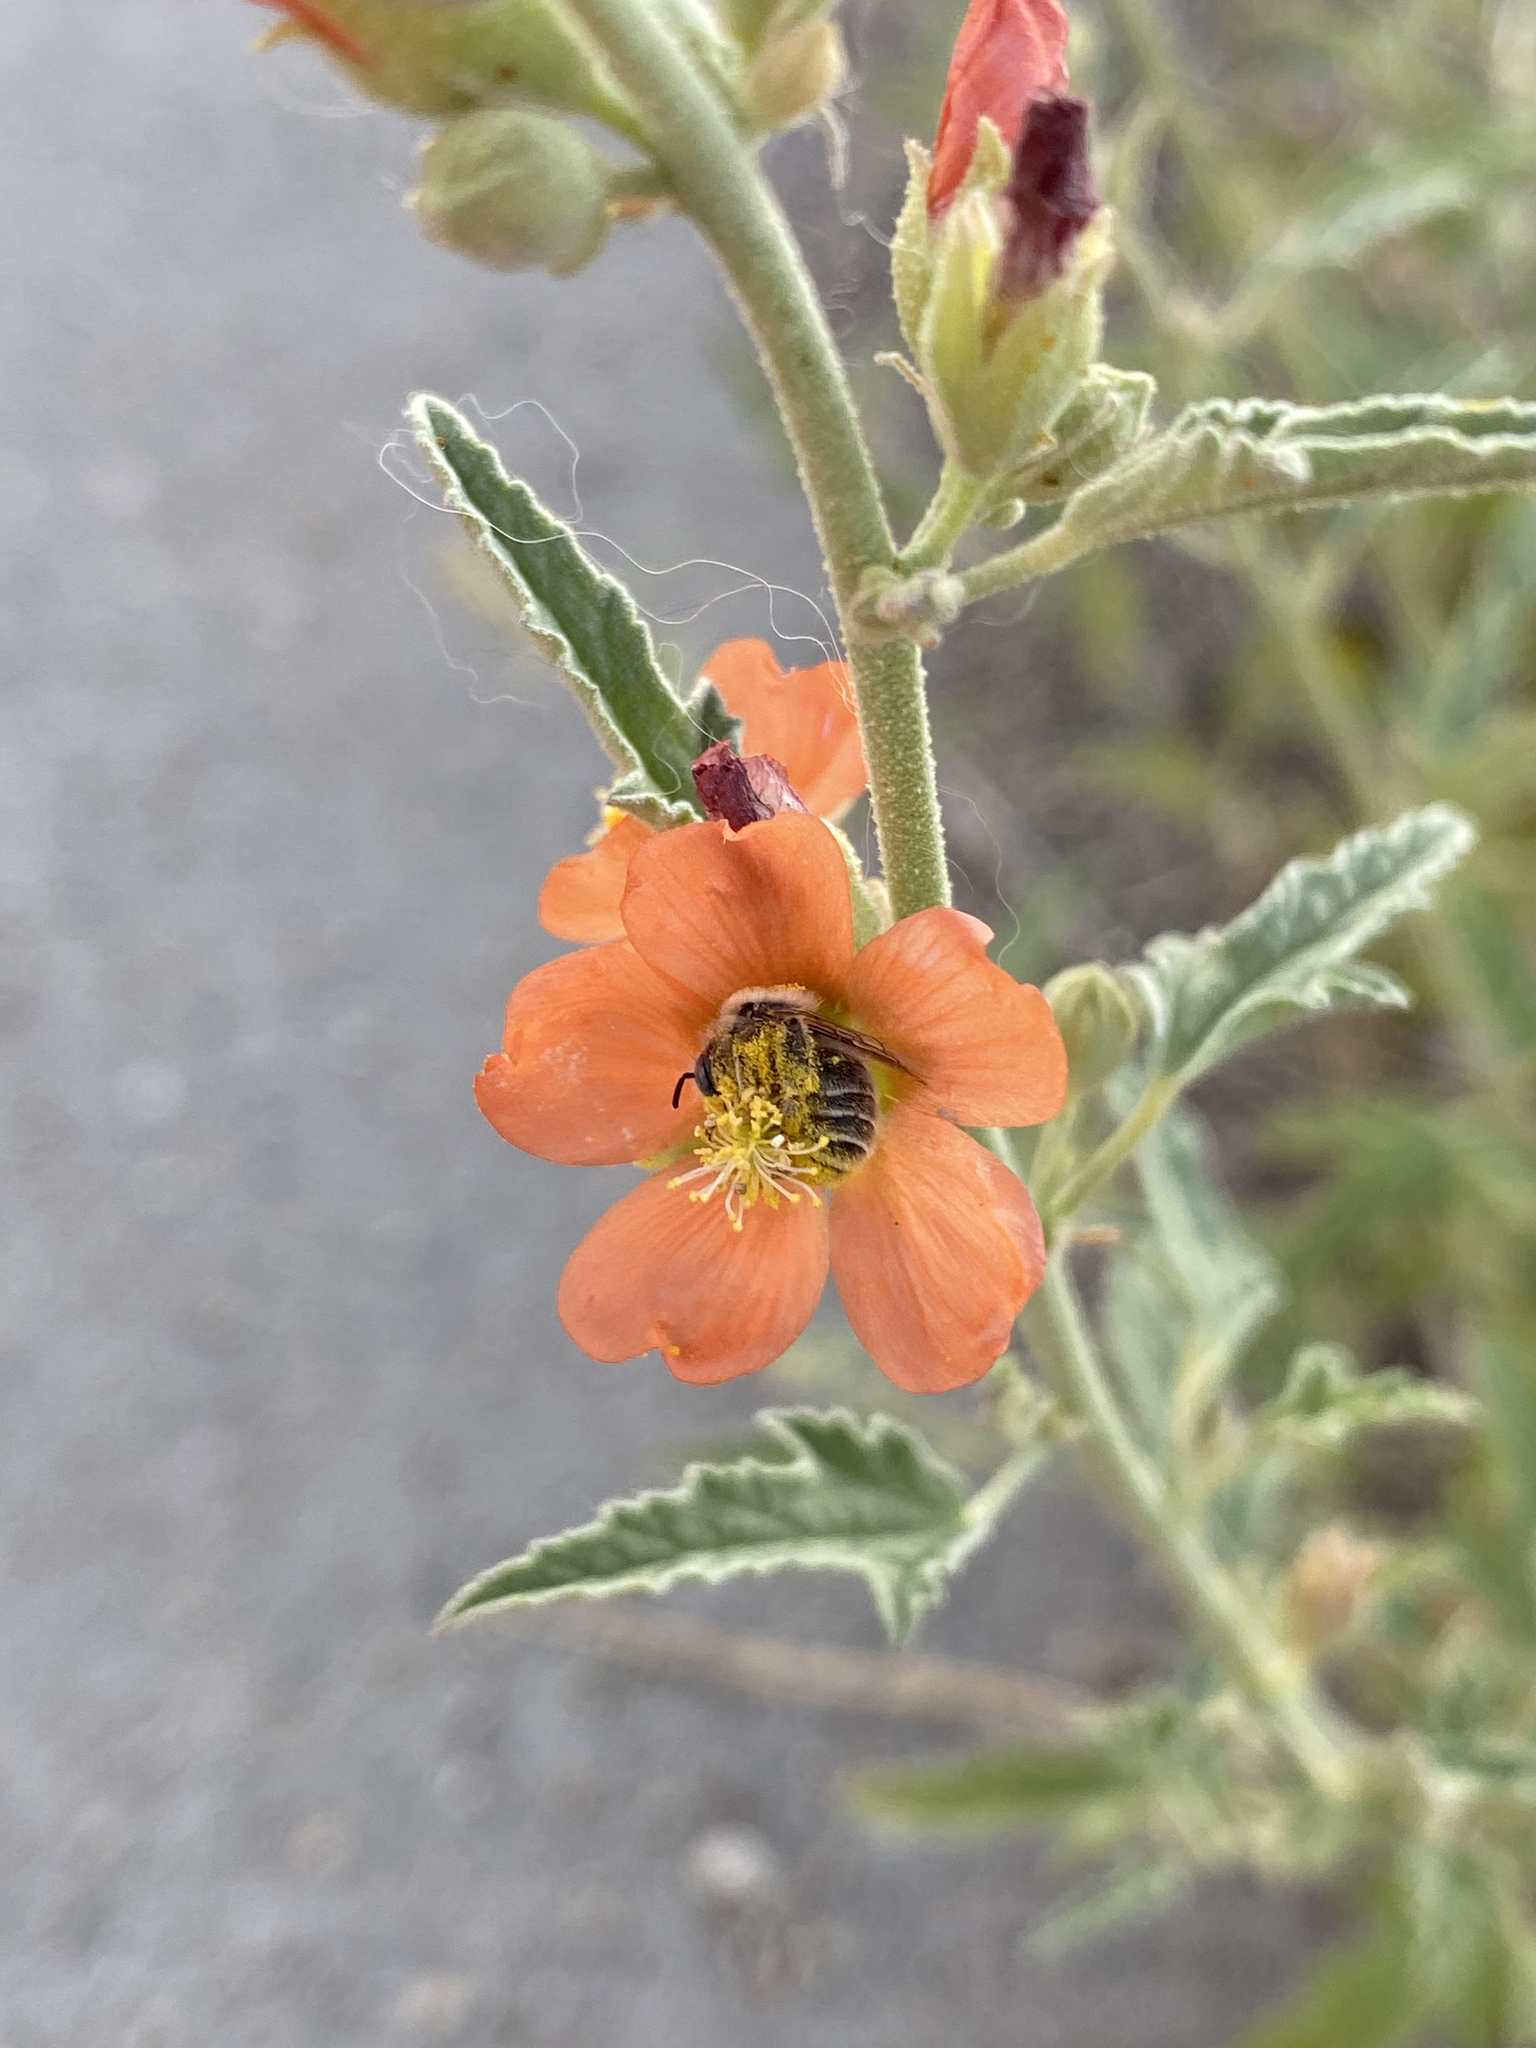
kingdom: Animalia
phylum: Arthropoda
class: Insecta
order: Hymenoptera
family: Apidae
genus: Diadasia
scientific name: Diadasia
